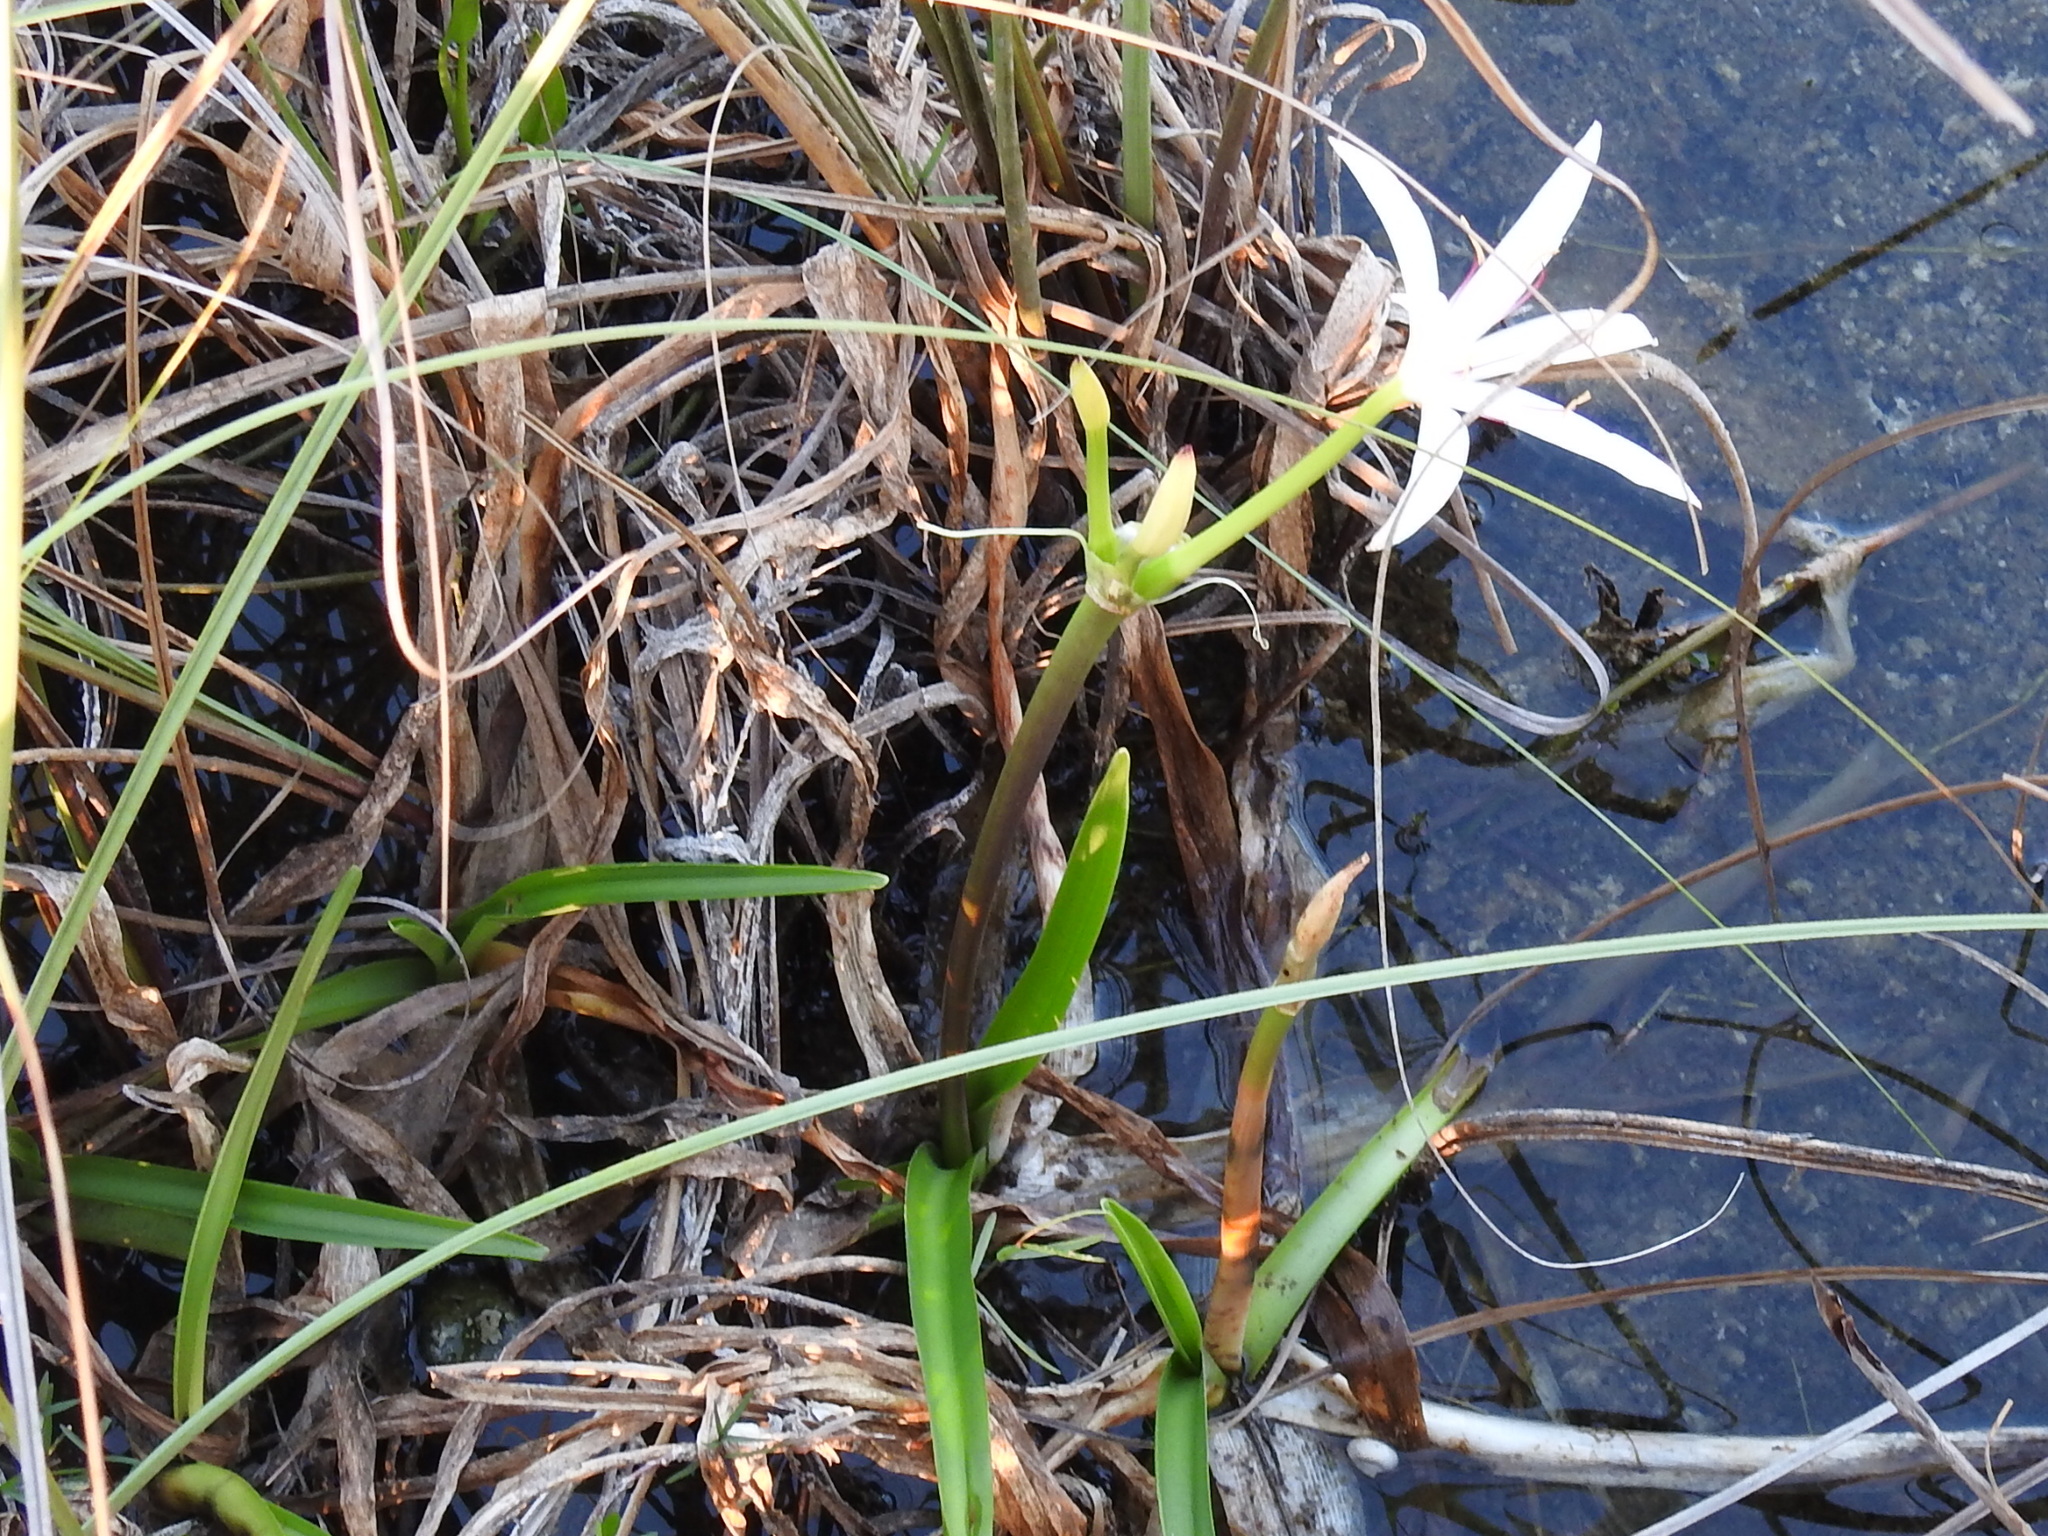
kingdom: Plantae
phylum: Tracheophyta
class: Liliopsida
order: Asparagales
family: Amaryllidaceae
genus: Crinum
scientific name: Crinum americanum
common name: Florida swamp-lily
